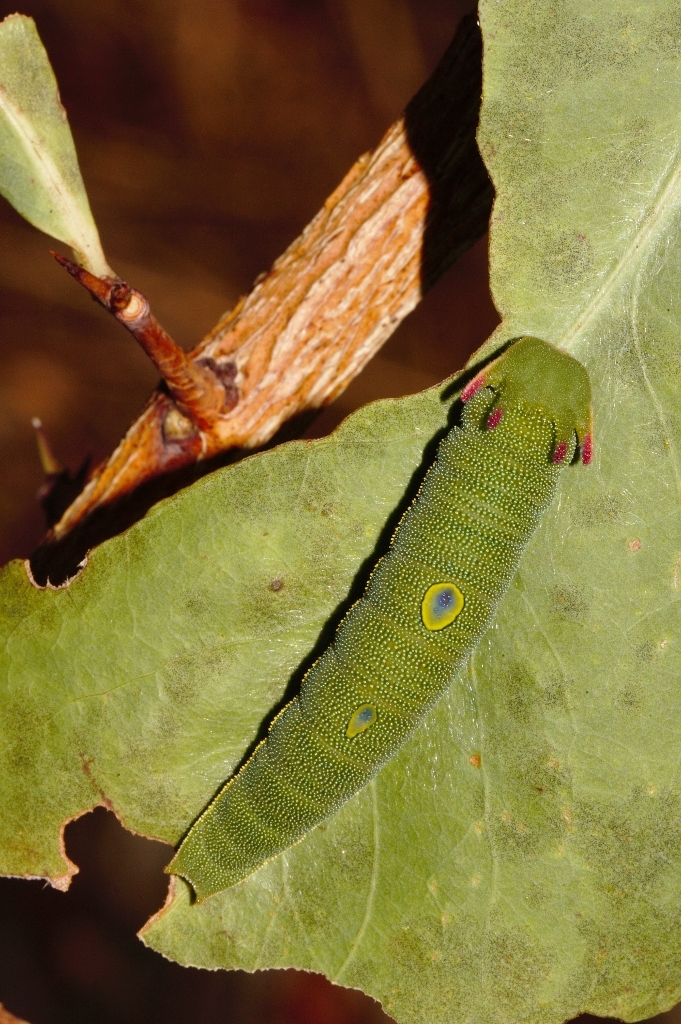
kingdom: Animalia
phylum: Arthropoda
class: Insecta
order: Lepidoptera
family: Nymphalidae
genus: Charaxes
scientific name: Charaxes jasius
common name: Two tailed pasha
